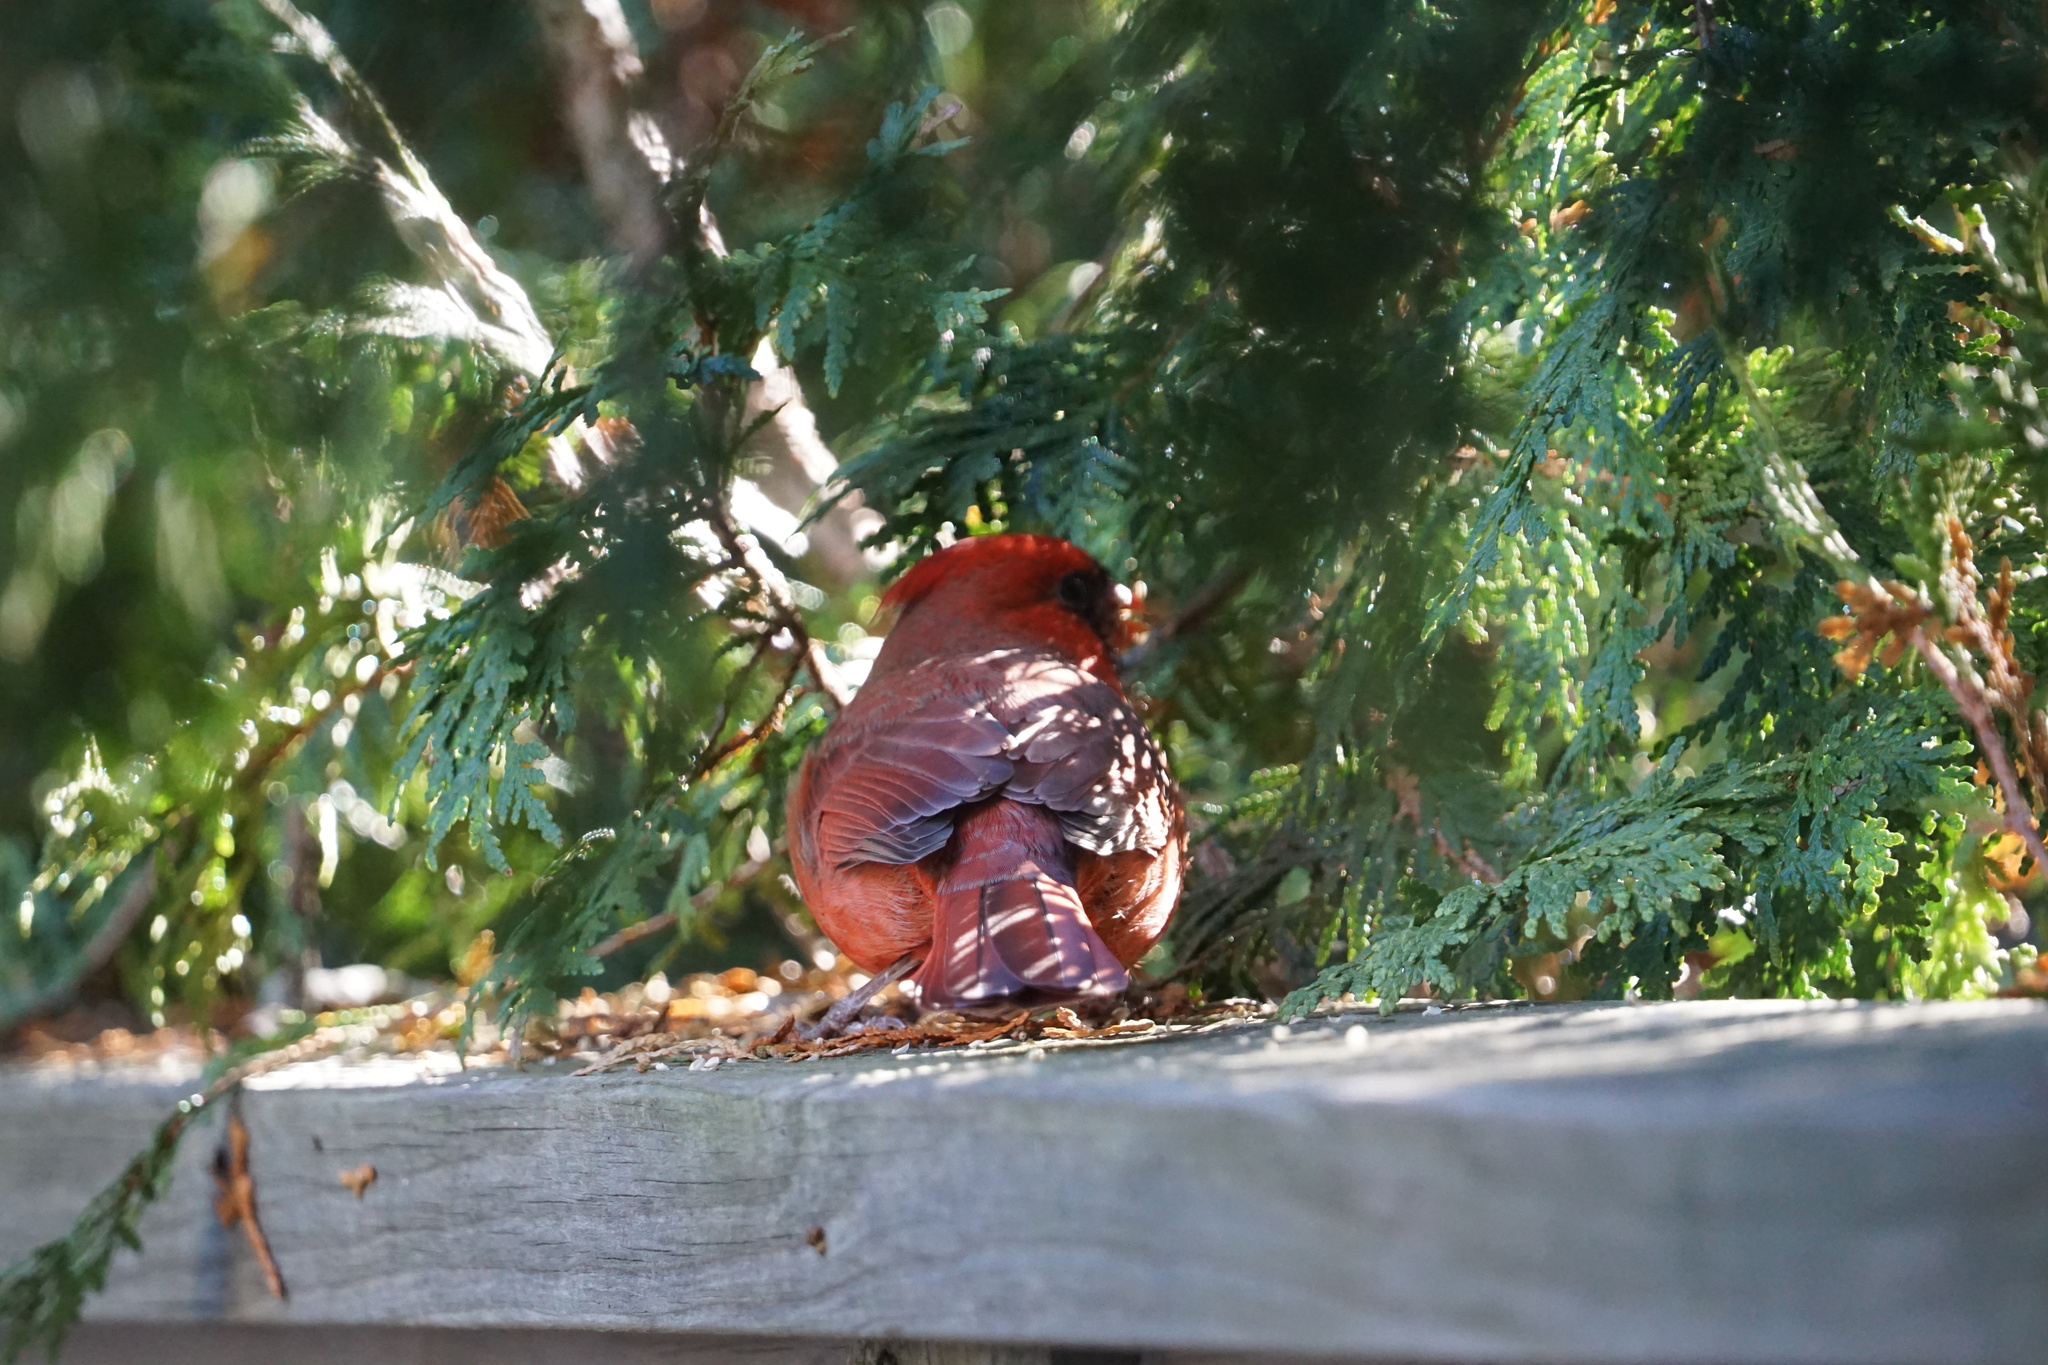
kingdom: Animalia
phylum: Chordata
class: Aves
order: Passeriformes
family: Cardinalidae
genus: Cardinalis
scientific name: Cardinalis cardinalis
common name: Northern cardinal
